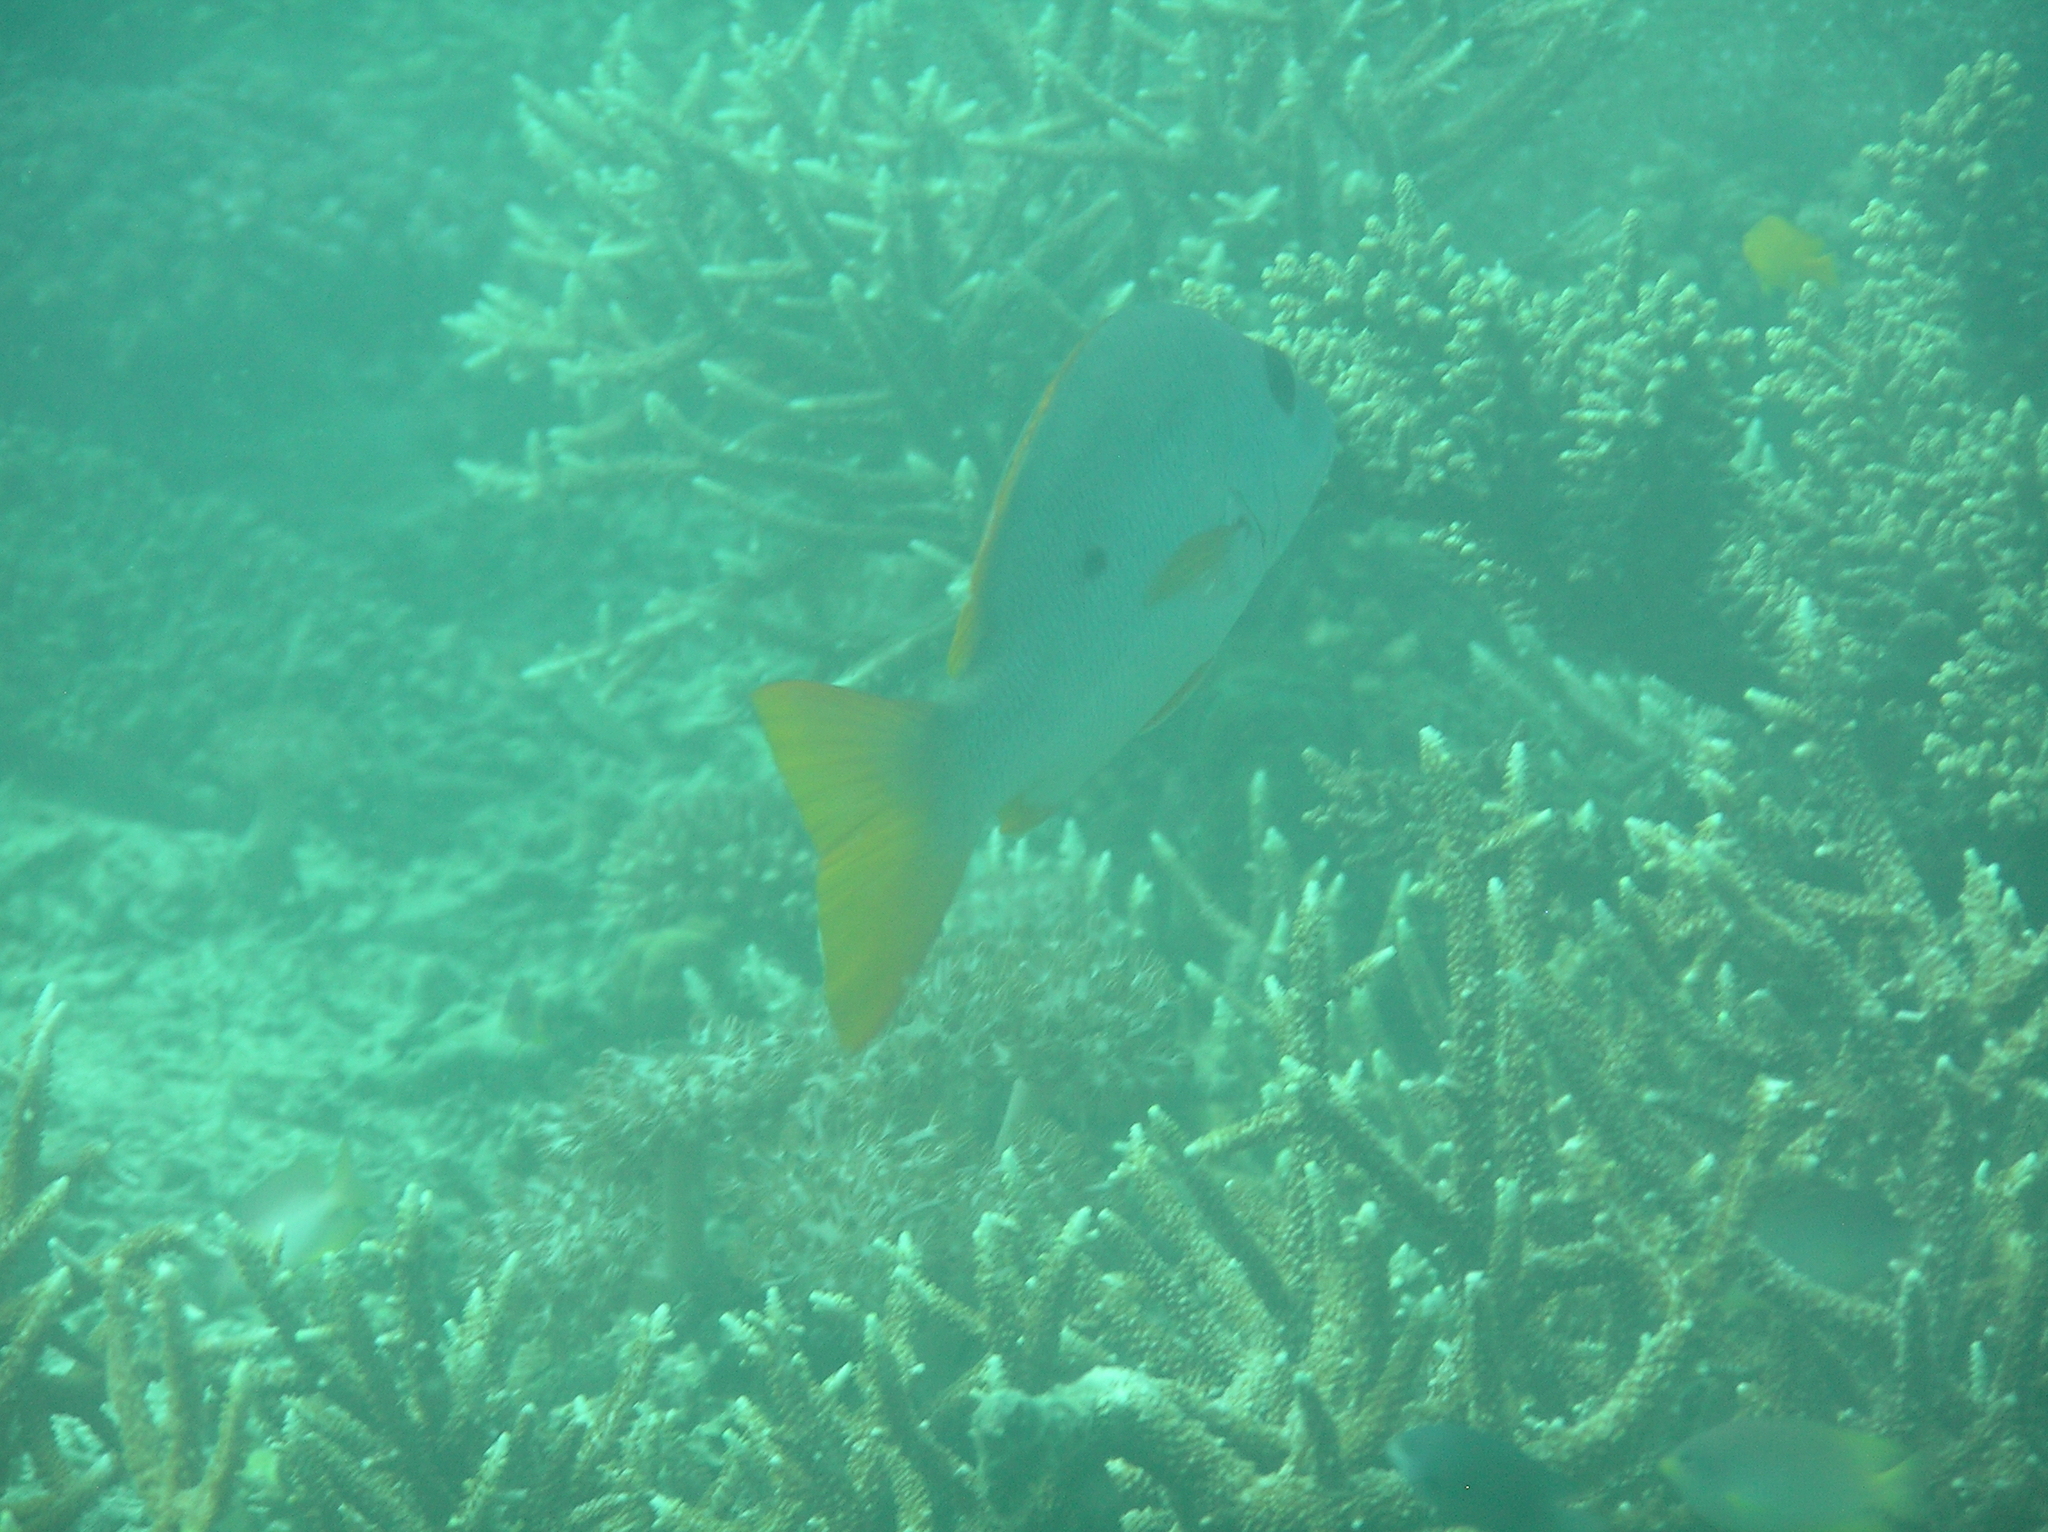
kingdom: Animalia
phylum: Chordata
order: Perciformes
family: Lutjanidae
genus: Lutjanus
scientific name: Lutjanus monostigma
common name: Onespot snapper
